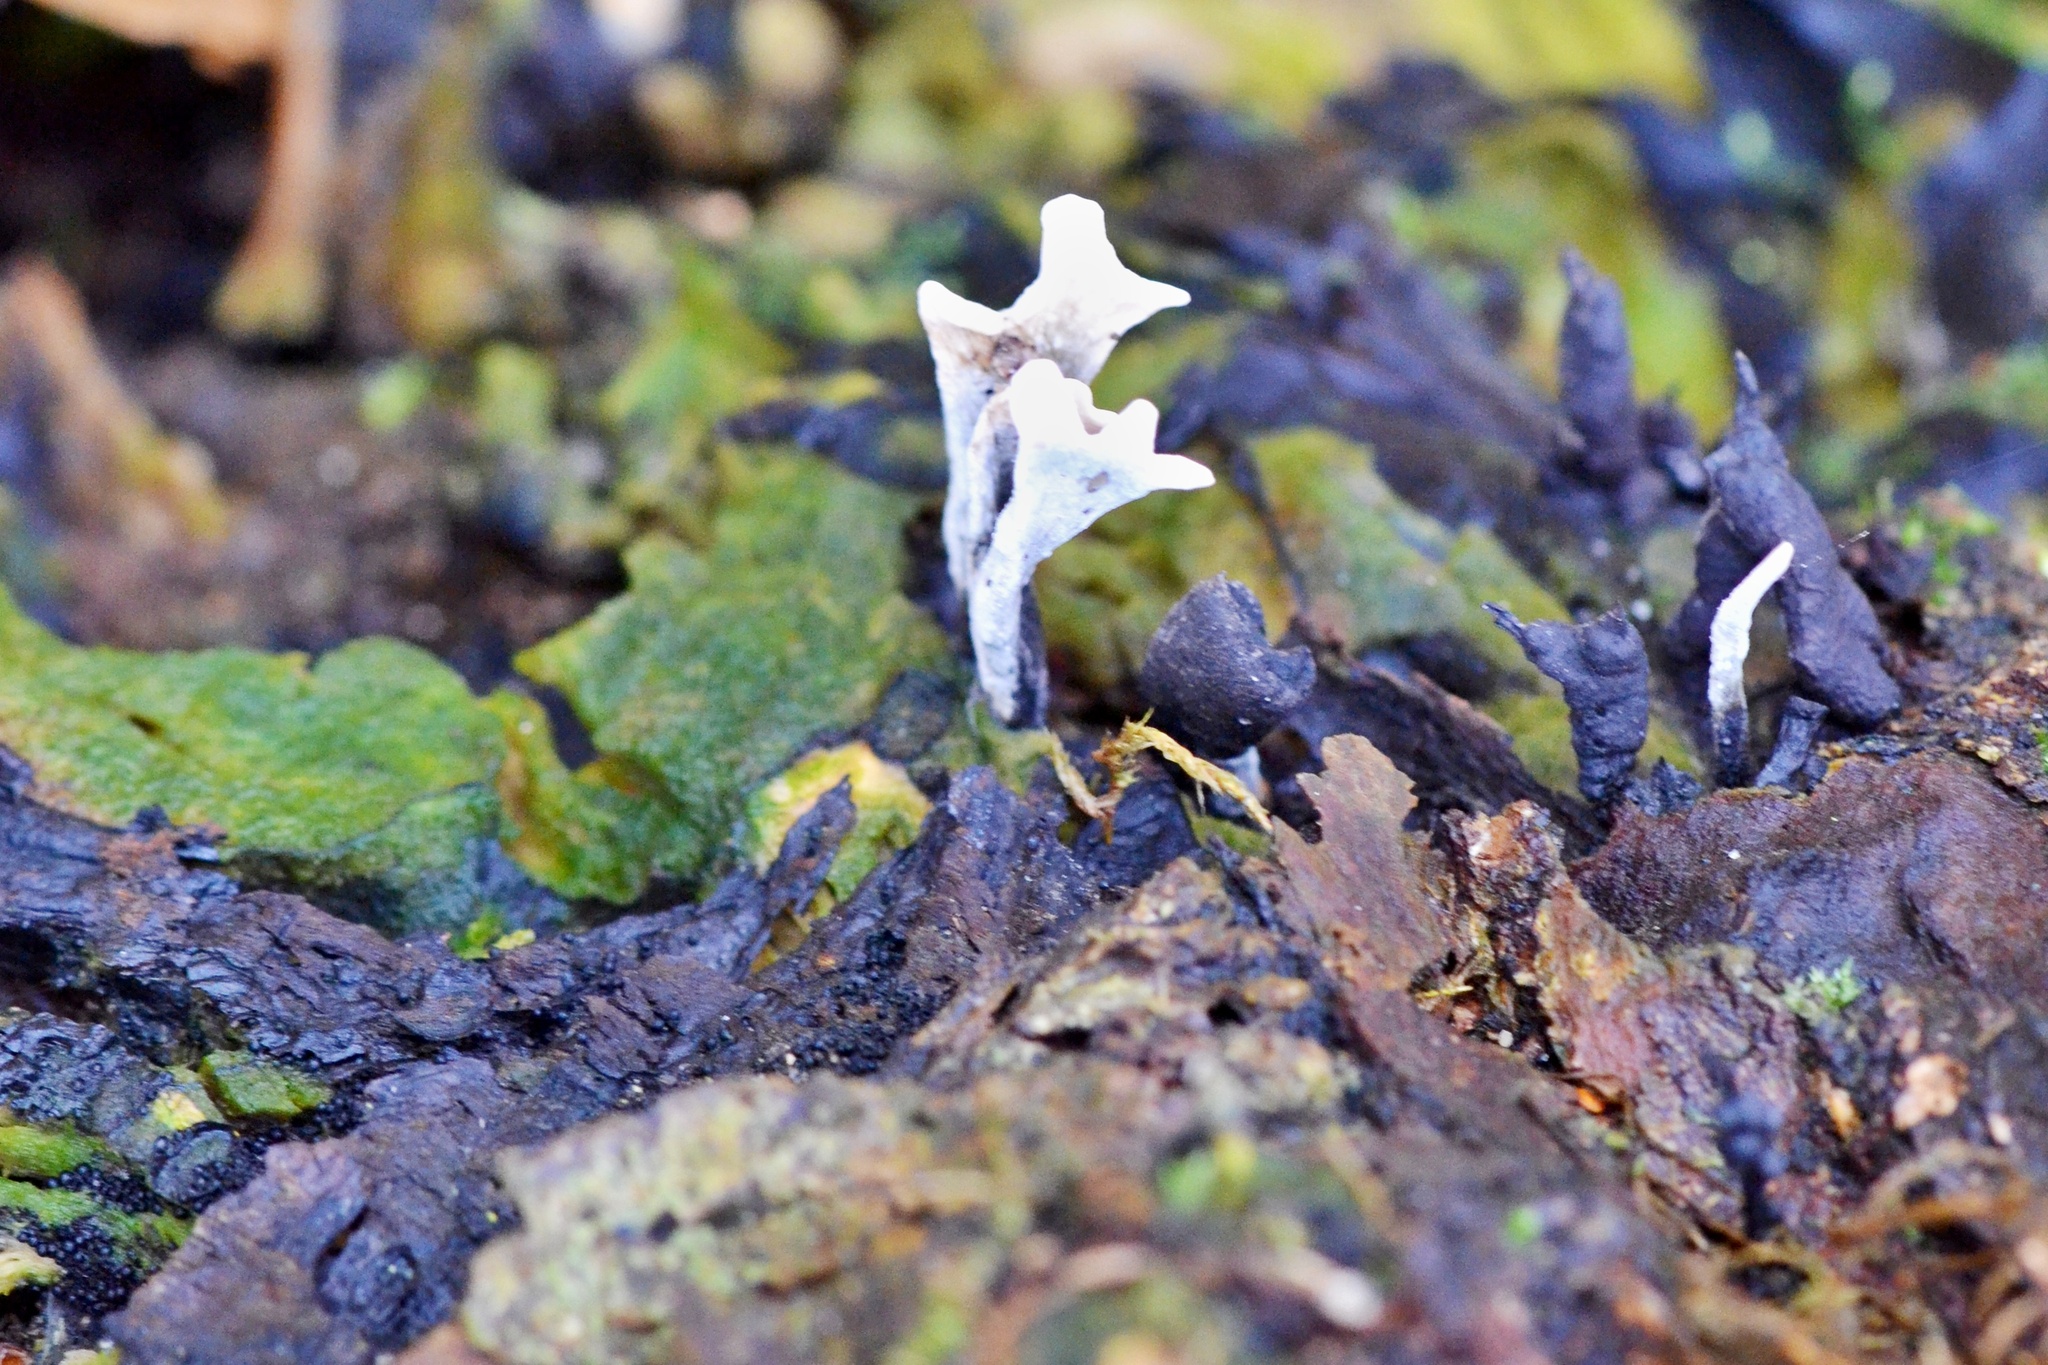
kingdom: Fungi
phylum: Ascomycota
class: Sordariomycetes
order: Xylariales
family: Xylariaceae
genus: Xylaria
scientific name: Xylaria hypoxylon
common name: Candle-snuff fungus
